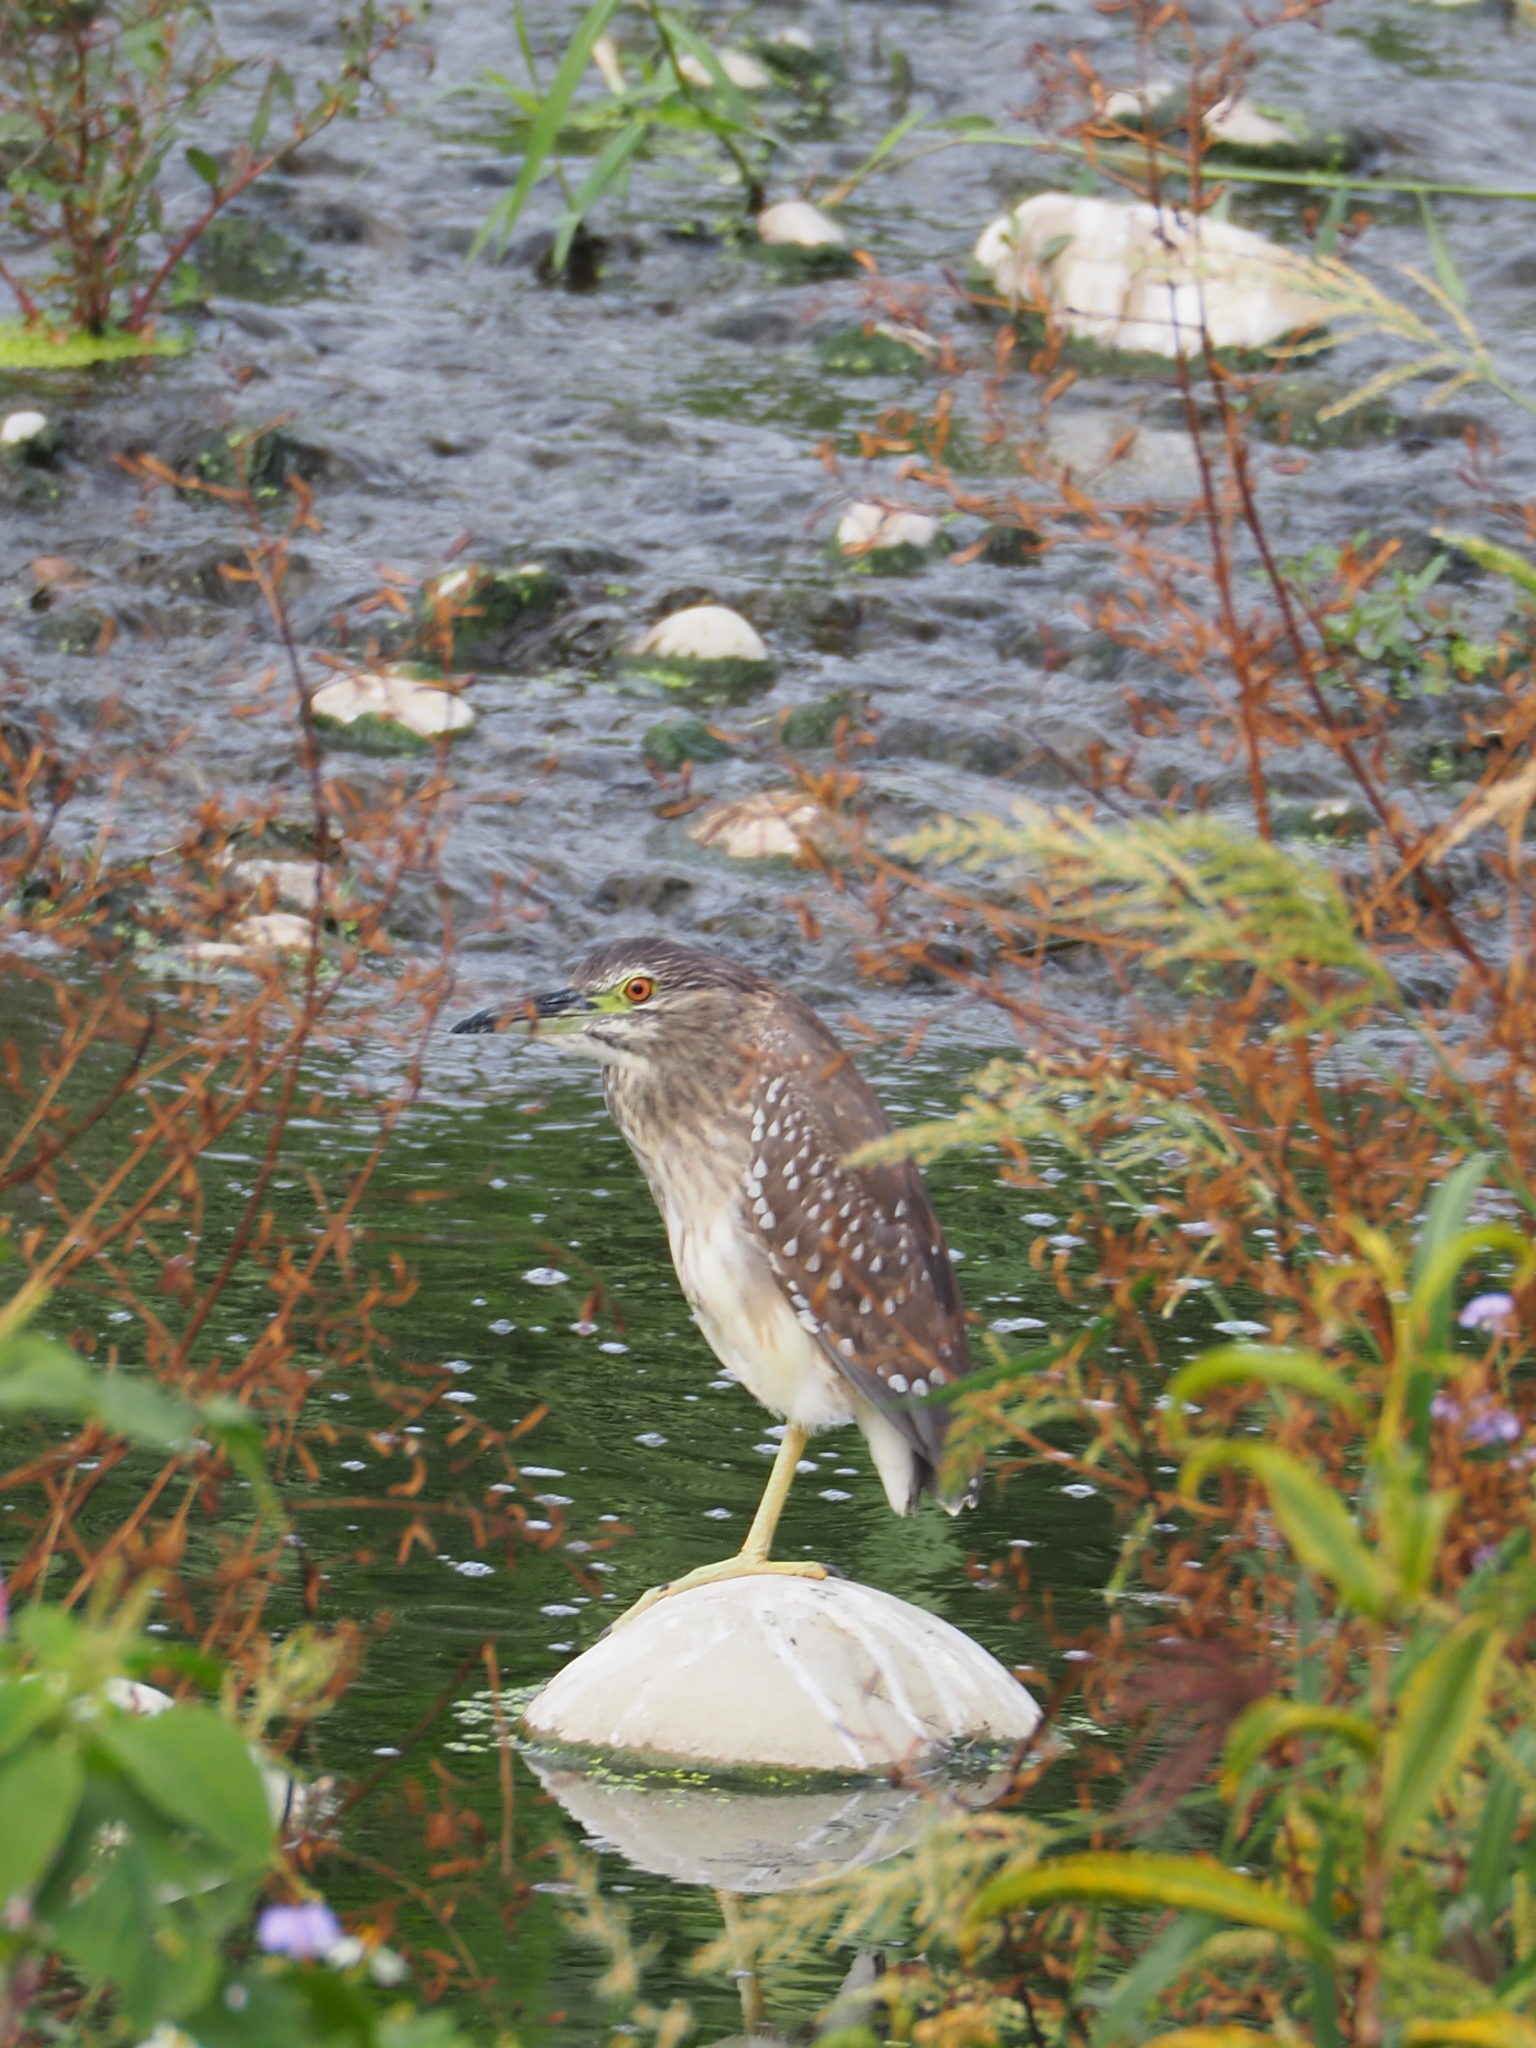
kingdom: Animalia
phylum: Chordata
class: Aves
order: Pelecaniformes
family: Ardeidae
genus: Nycticorax
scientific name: Nycticorax nycticorax
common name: Black-crowned night heron
